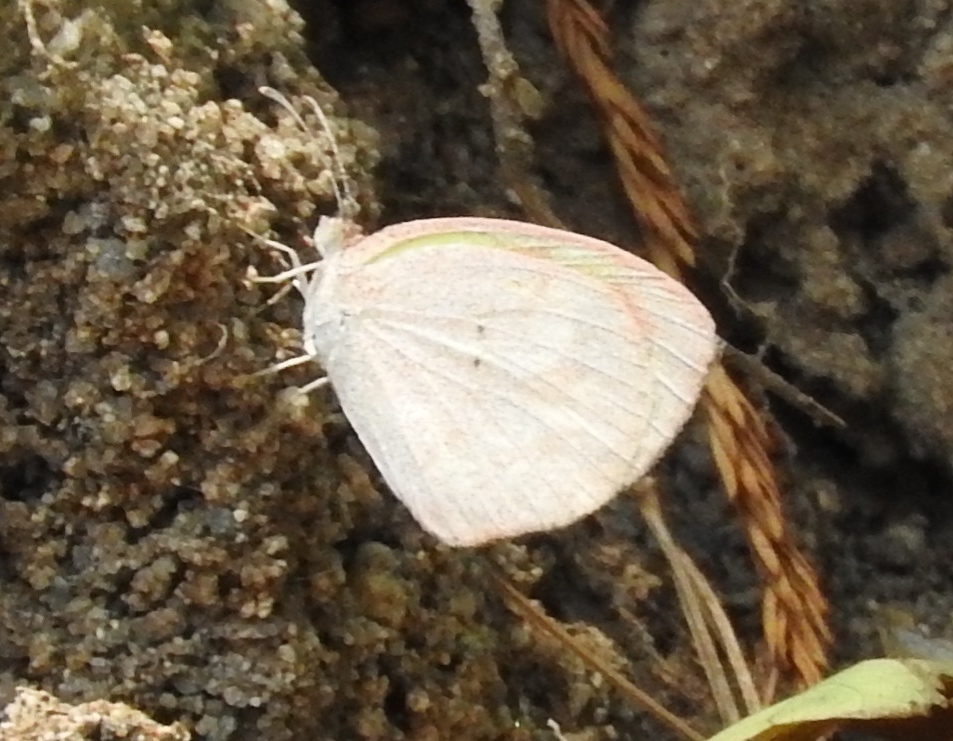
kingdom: Animalia
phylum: Arthropoda
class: Insecta
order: Lepidoptera
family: Pieridae
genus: Eurema
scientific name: Eurema daira
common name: Barred sulphur
